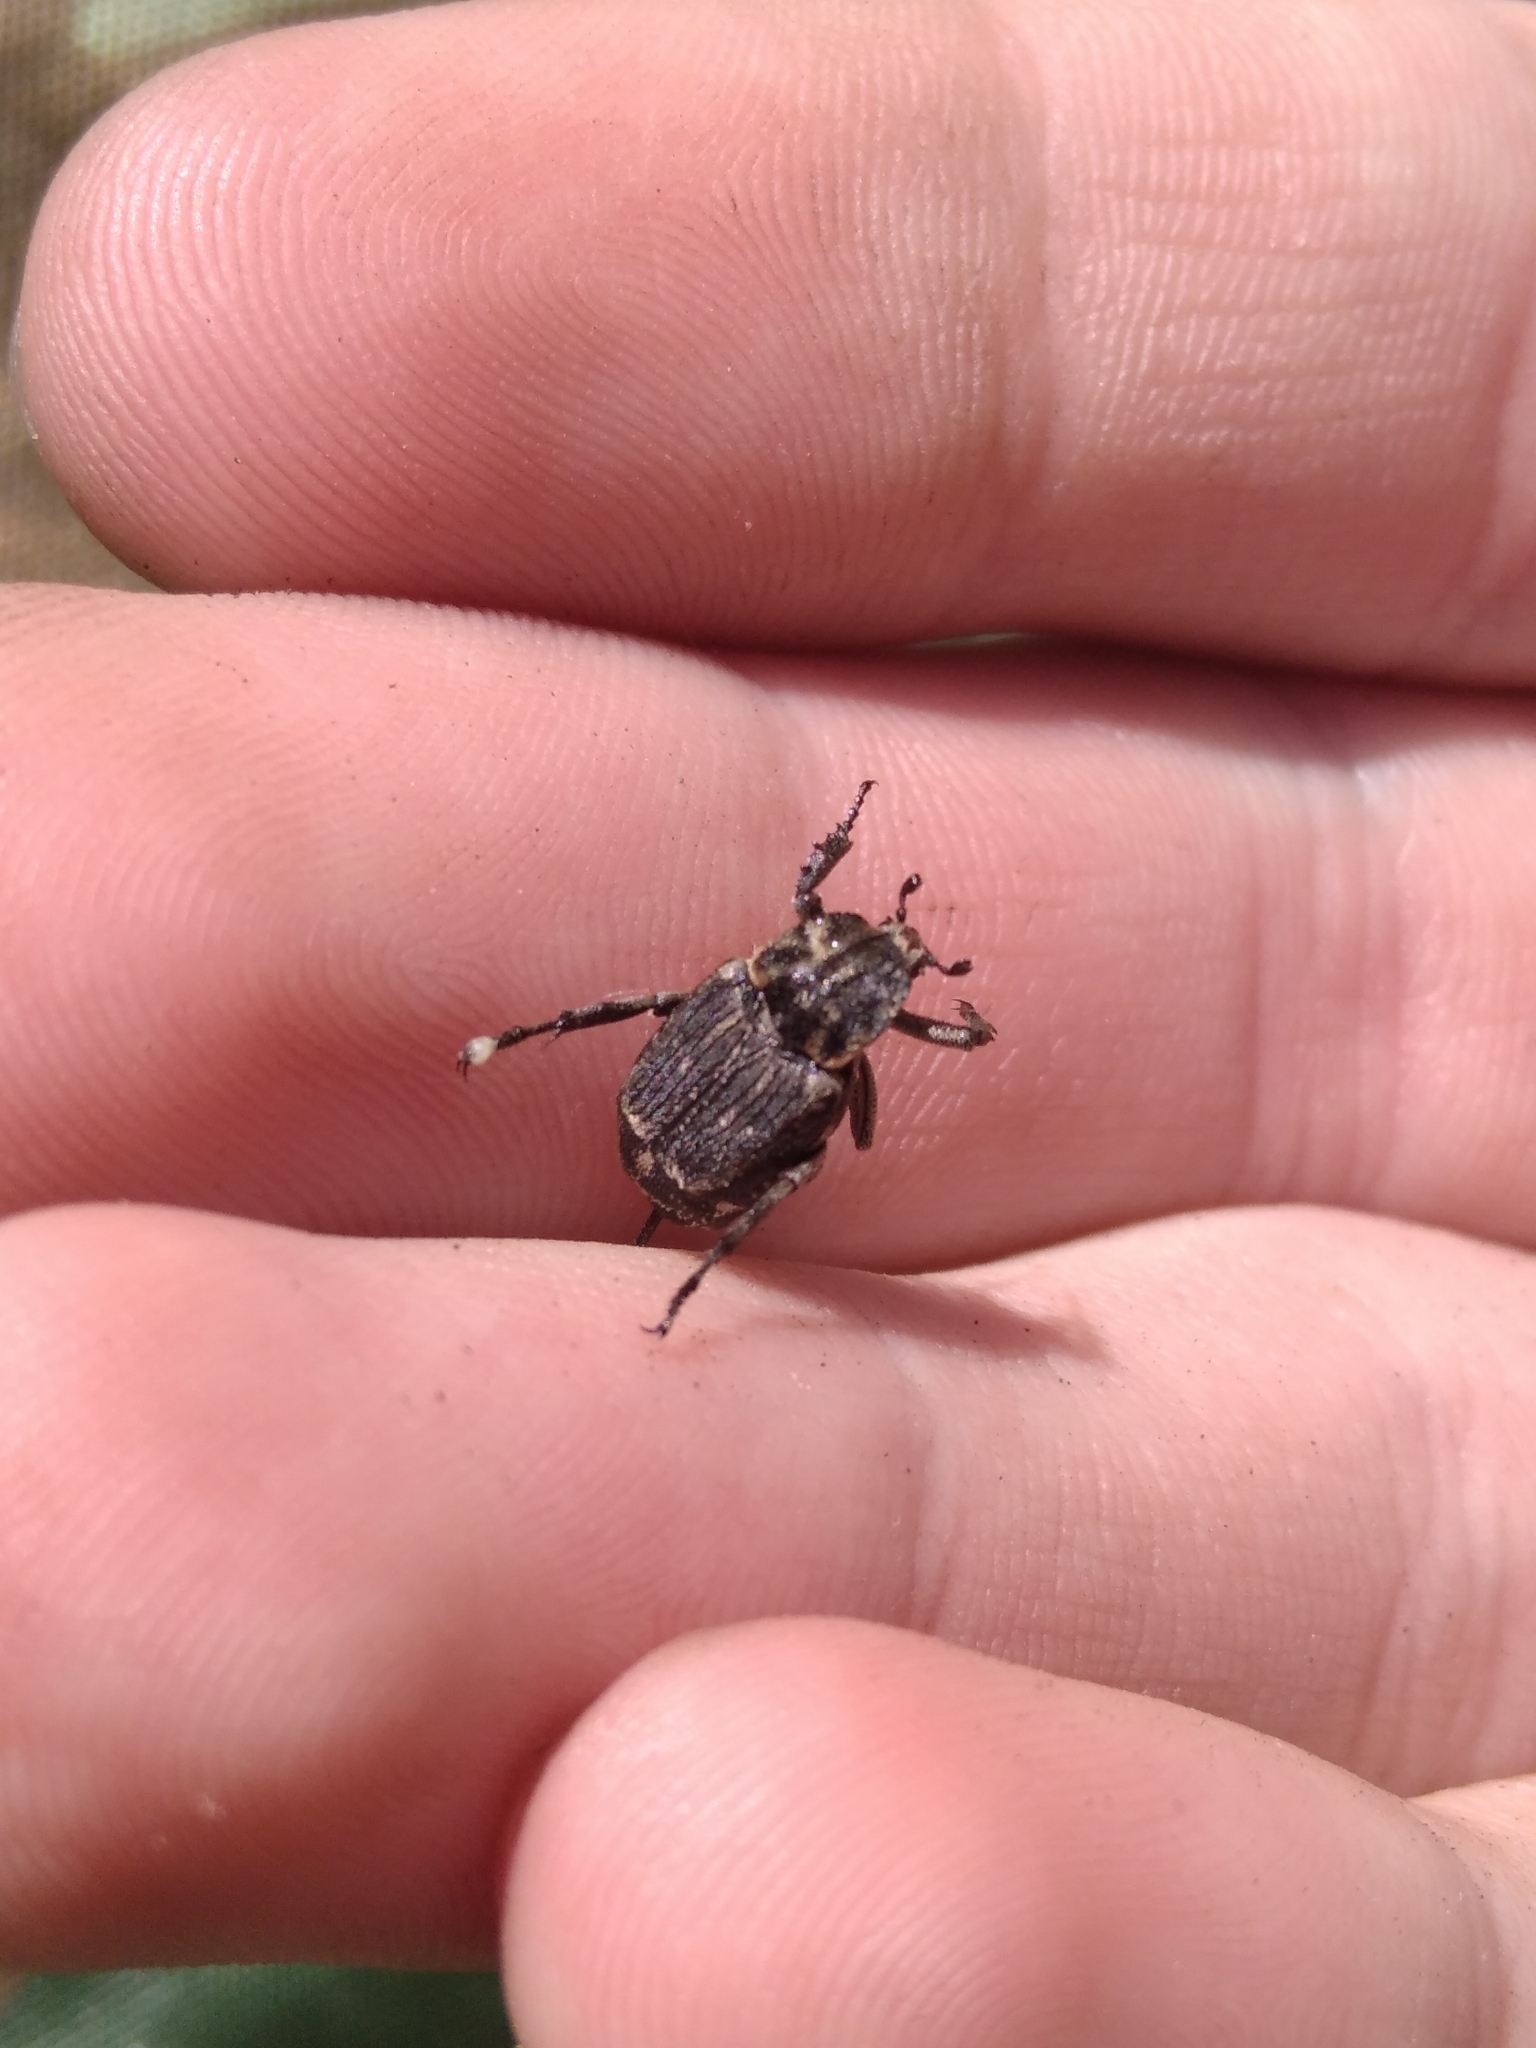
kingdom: Animalia
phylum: Arthropoda
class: Insecta
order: Coleoptera
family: Scarabaeidae
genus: Valgus
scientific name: Valgus hemipterus
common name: Bug flower chafer
